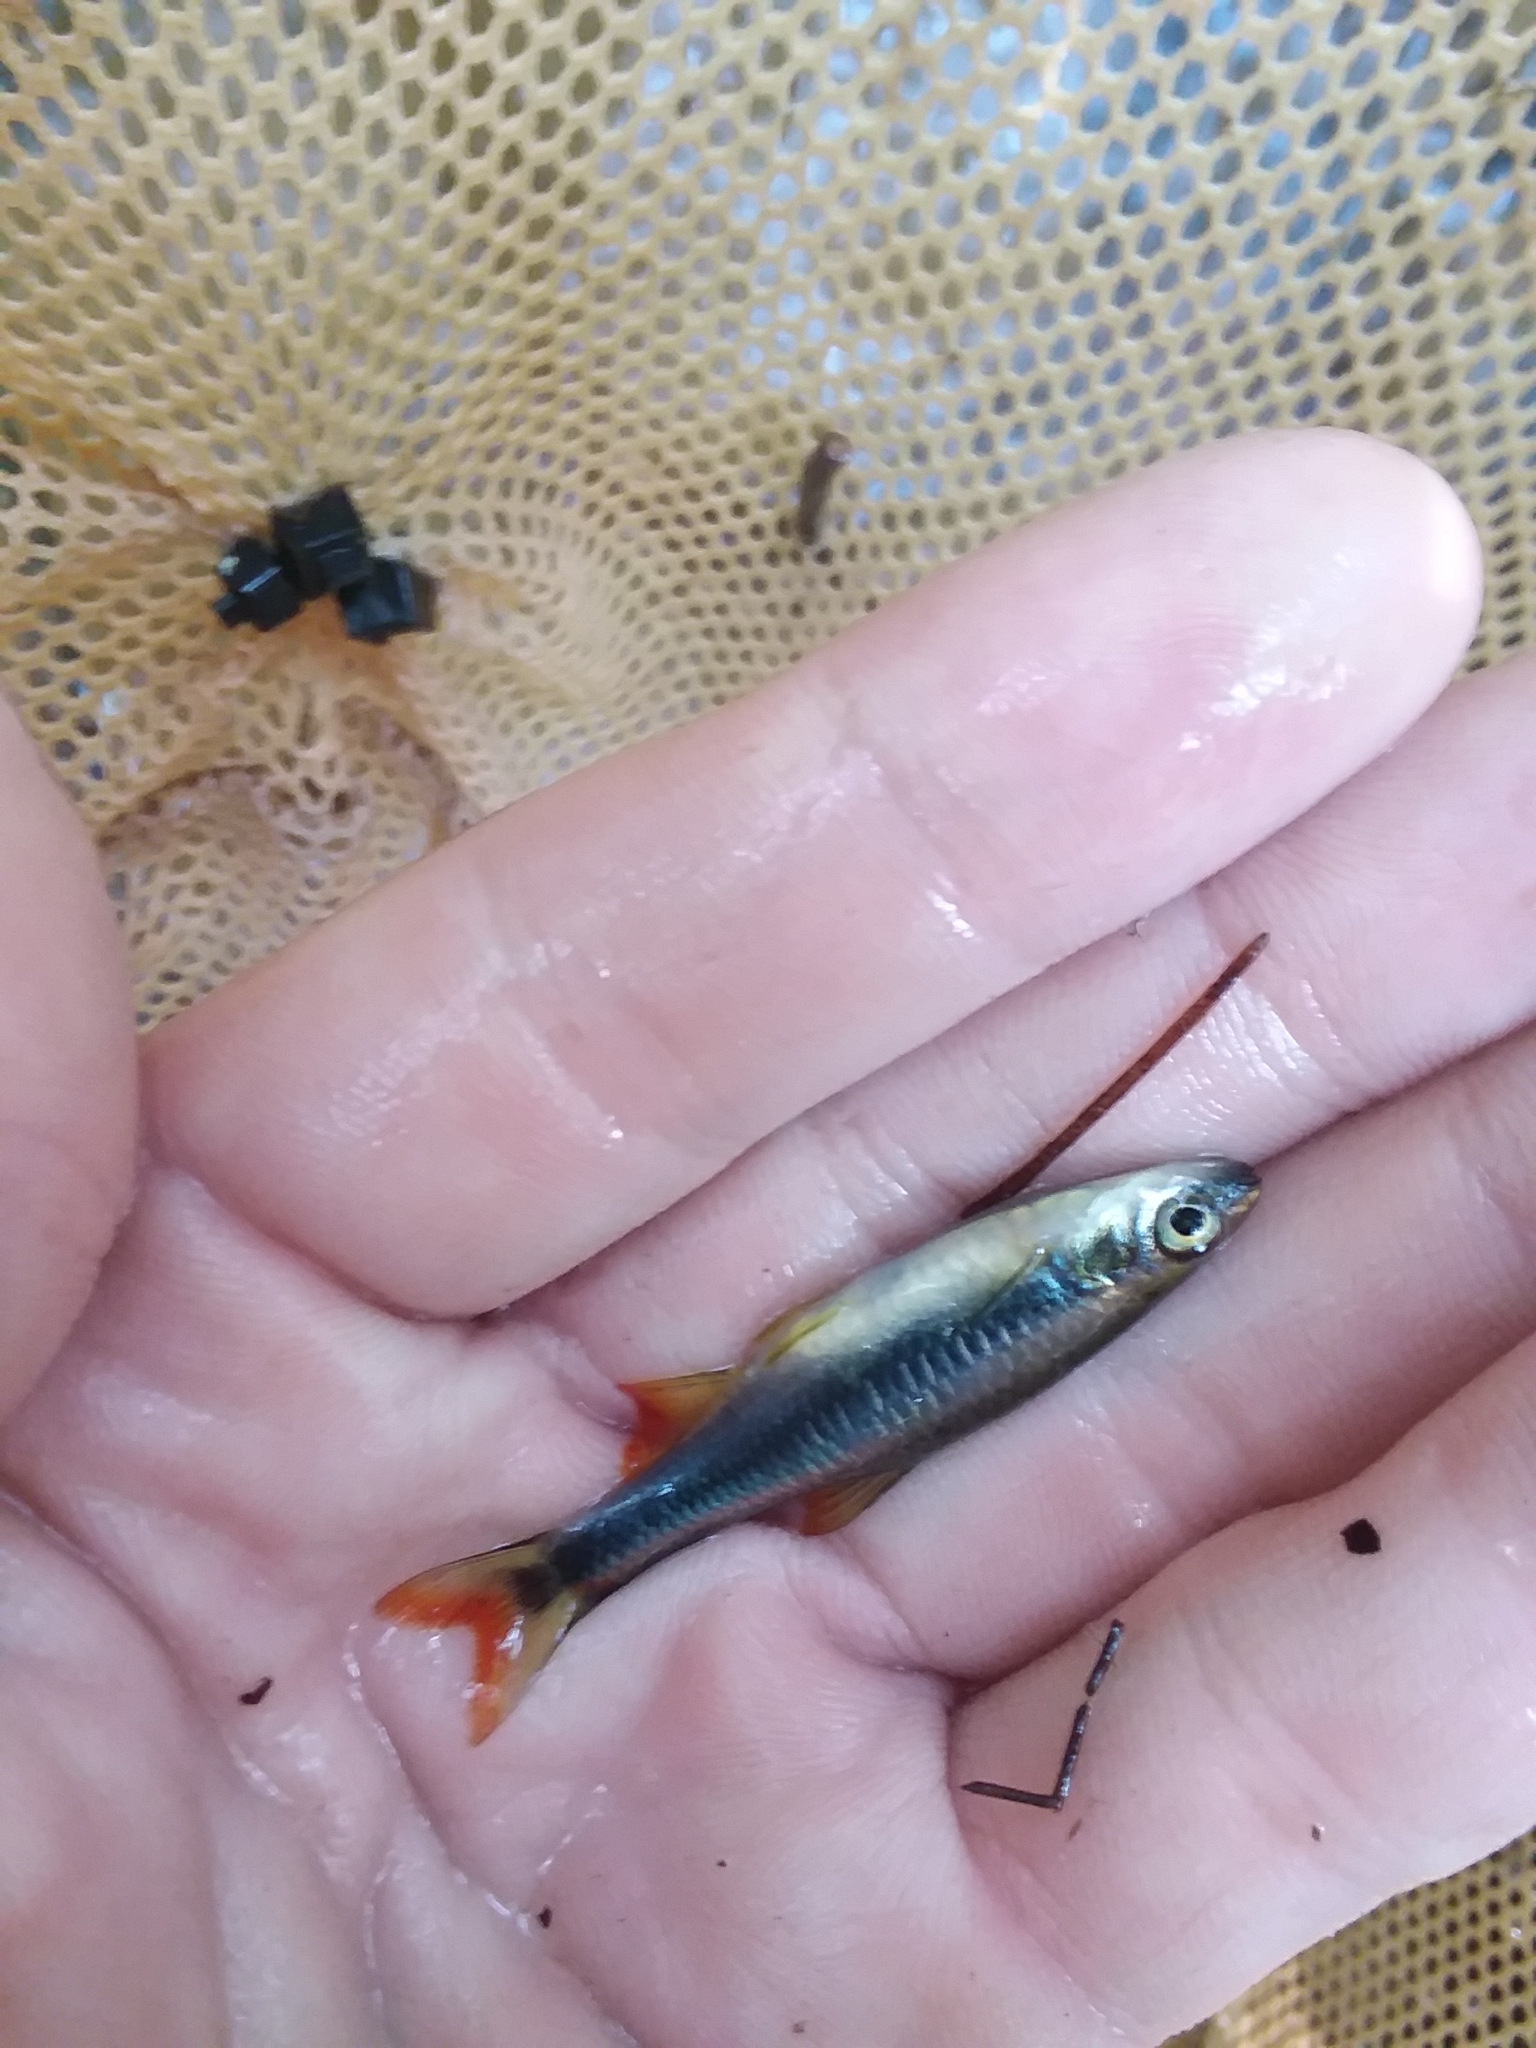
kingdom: Animalia
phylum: Chordata
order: Cypriniformes
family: Cyprinidae
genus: Pteronotropis
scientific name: Pteronotropis signipinnis
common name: Flagfin shiner
